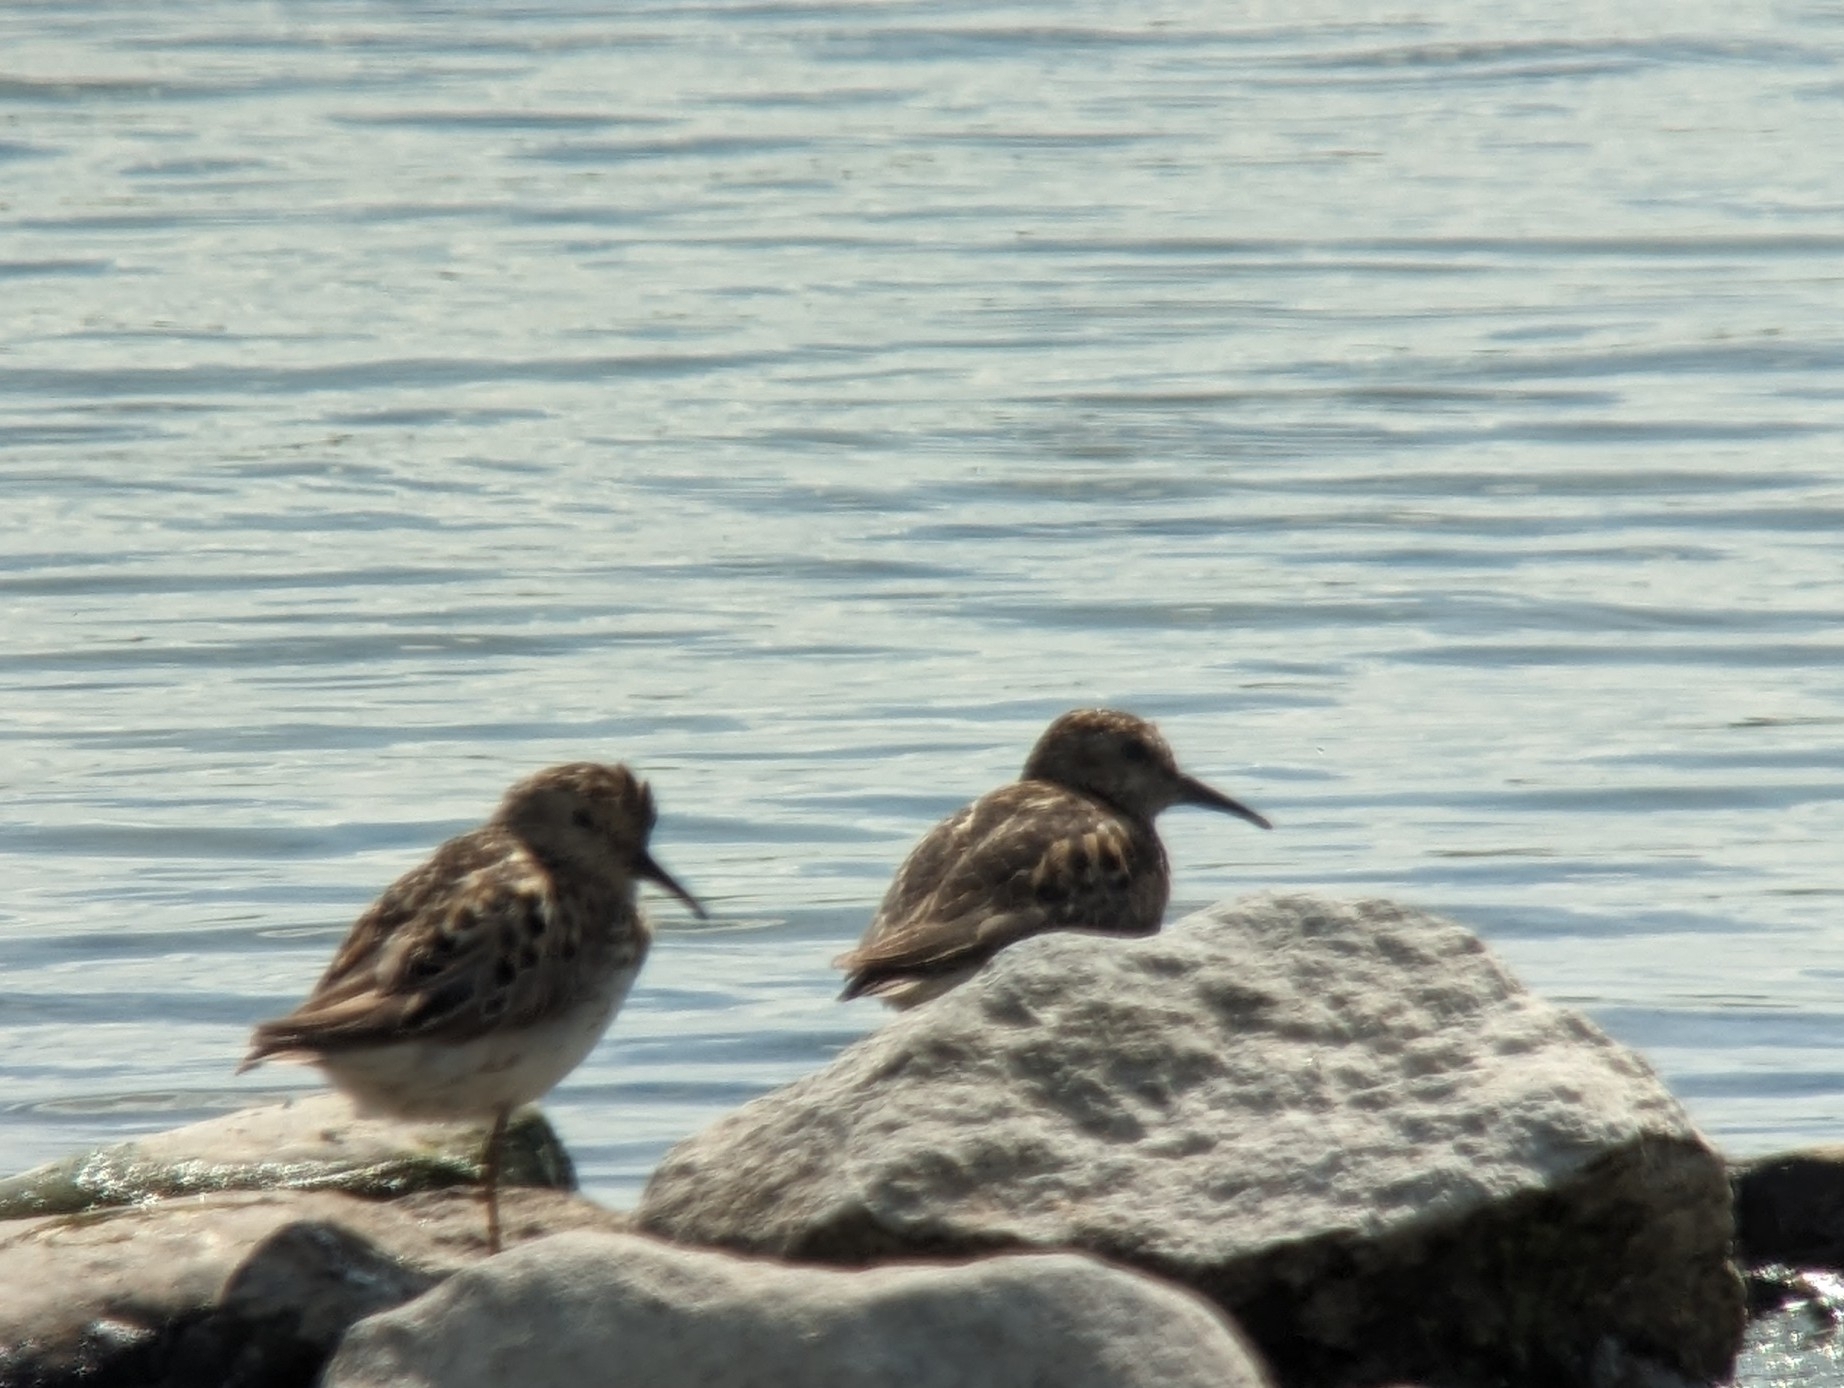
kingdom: Animalia
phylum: Chordata
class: Aves
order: Charadriiformes
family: Scolopacidae
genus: Calidris
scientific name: Calidris minutilla
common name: Least sandpiper
